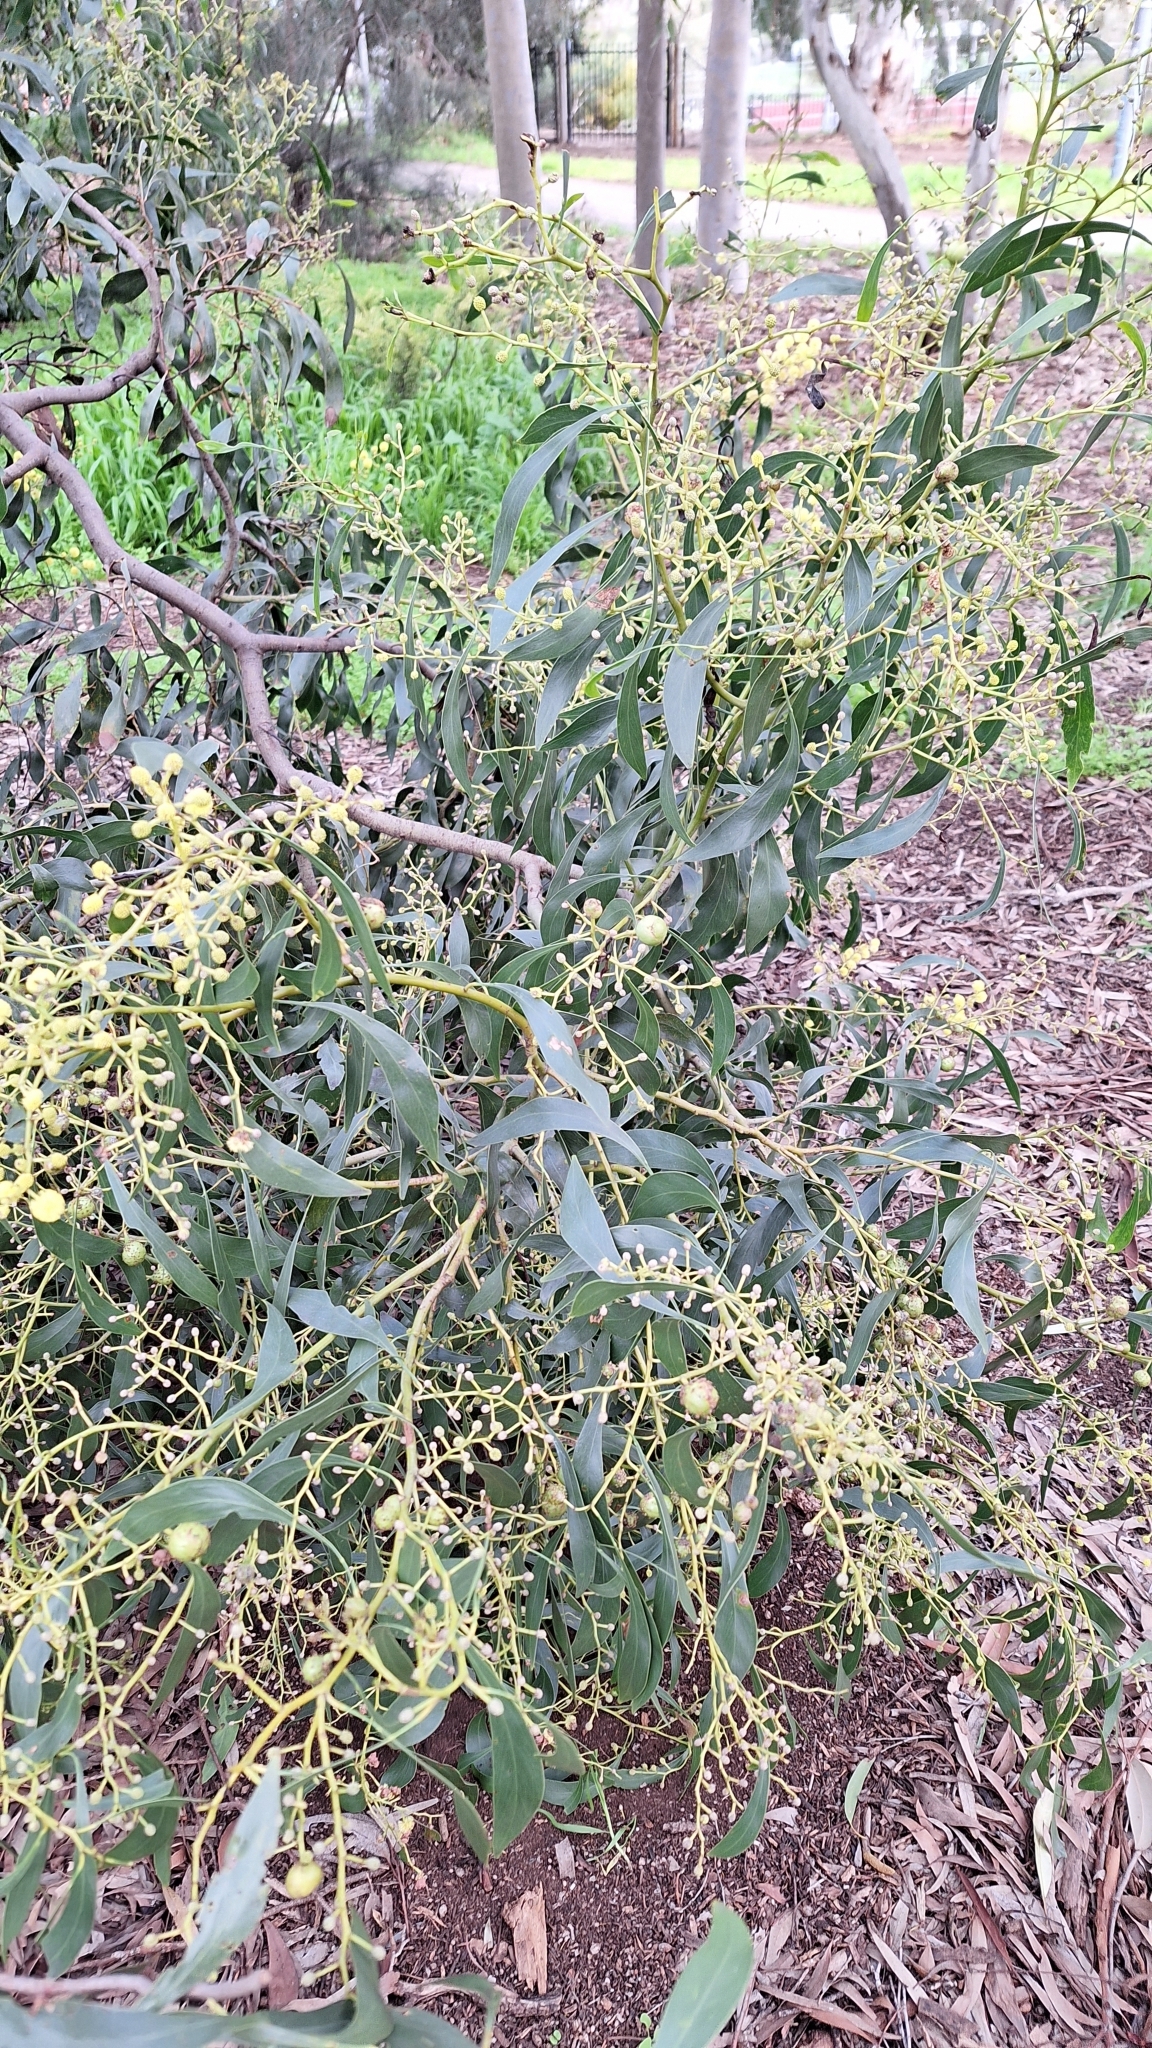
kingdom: Plantae
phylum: Tracheophyta
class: Magnoliopsida
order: Fabales
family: Fabaceae
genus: Acacia
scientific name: Acacia pycnantha
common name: Golden wattle
